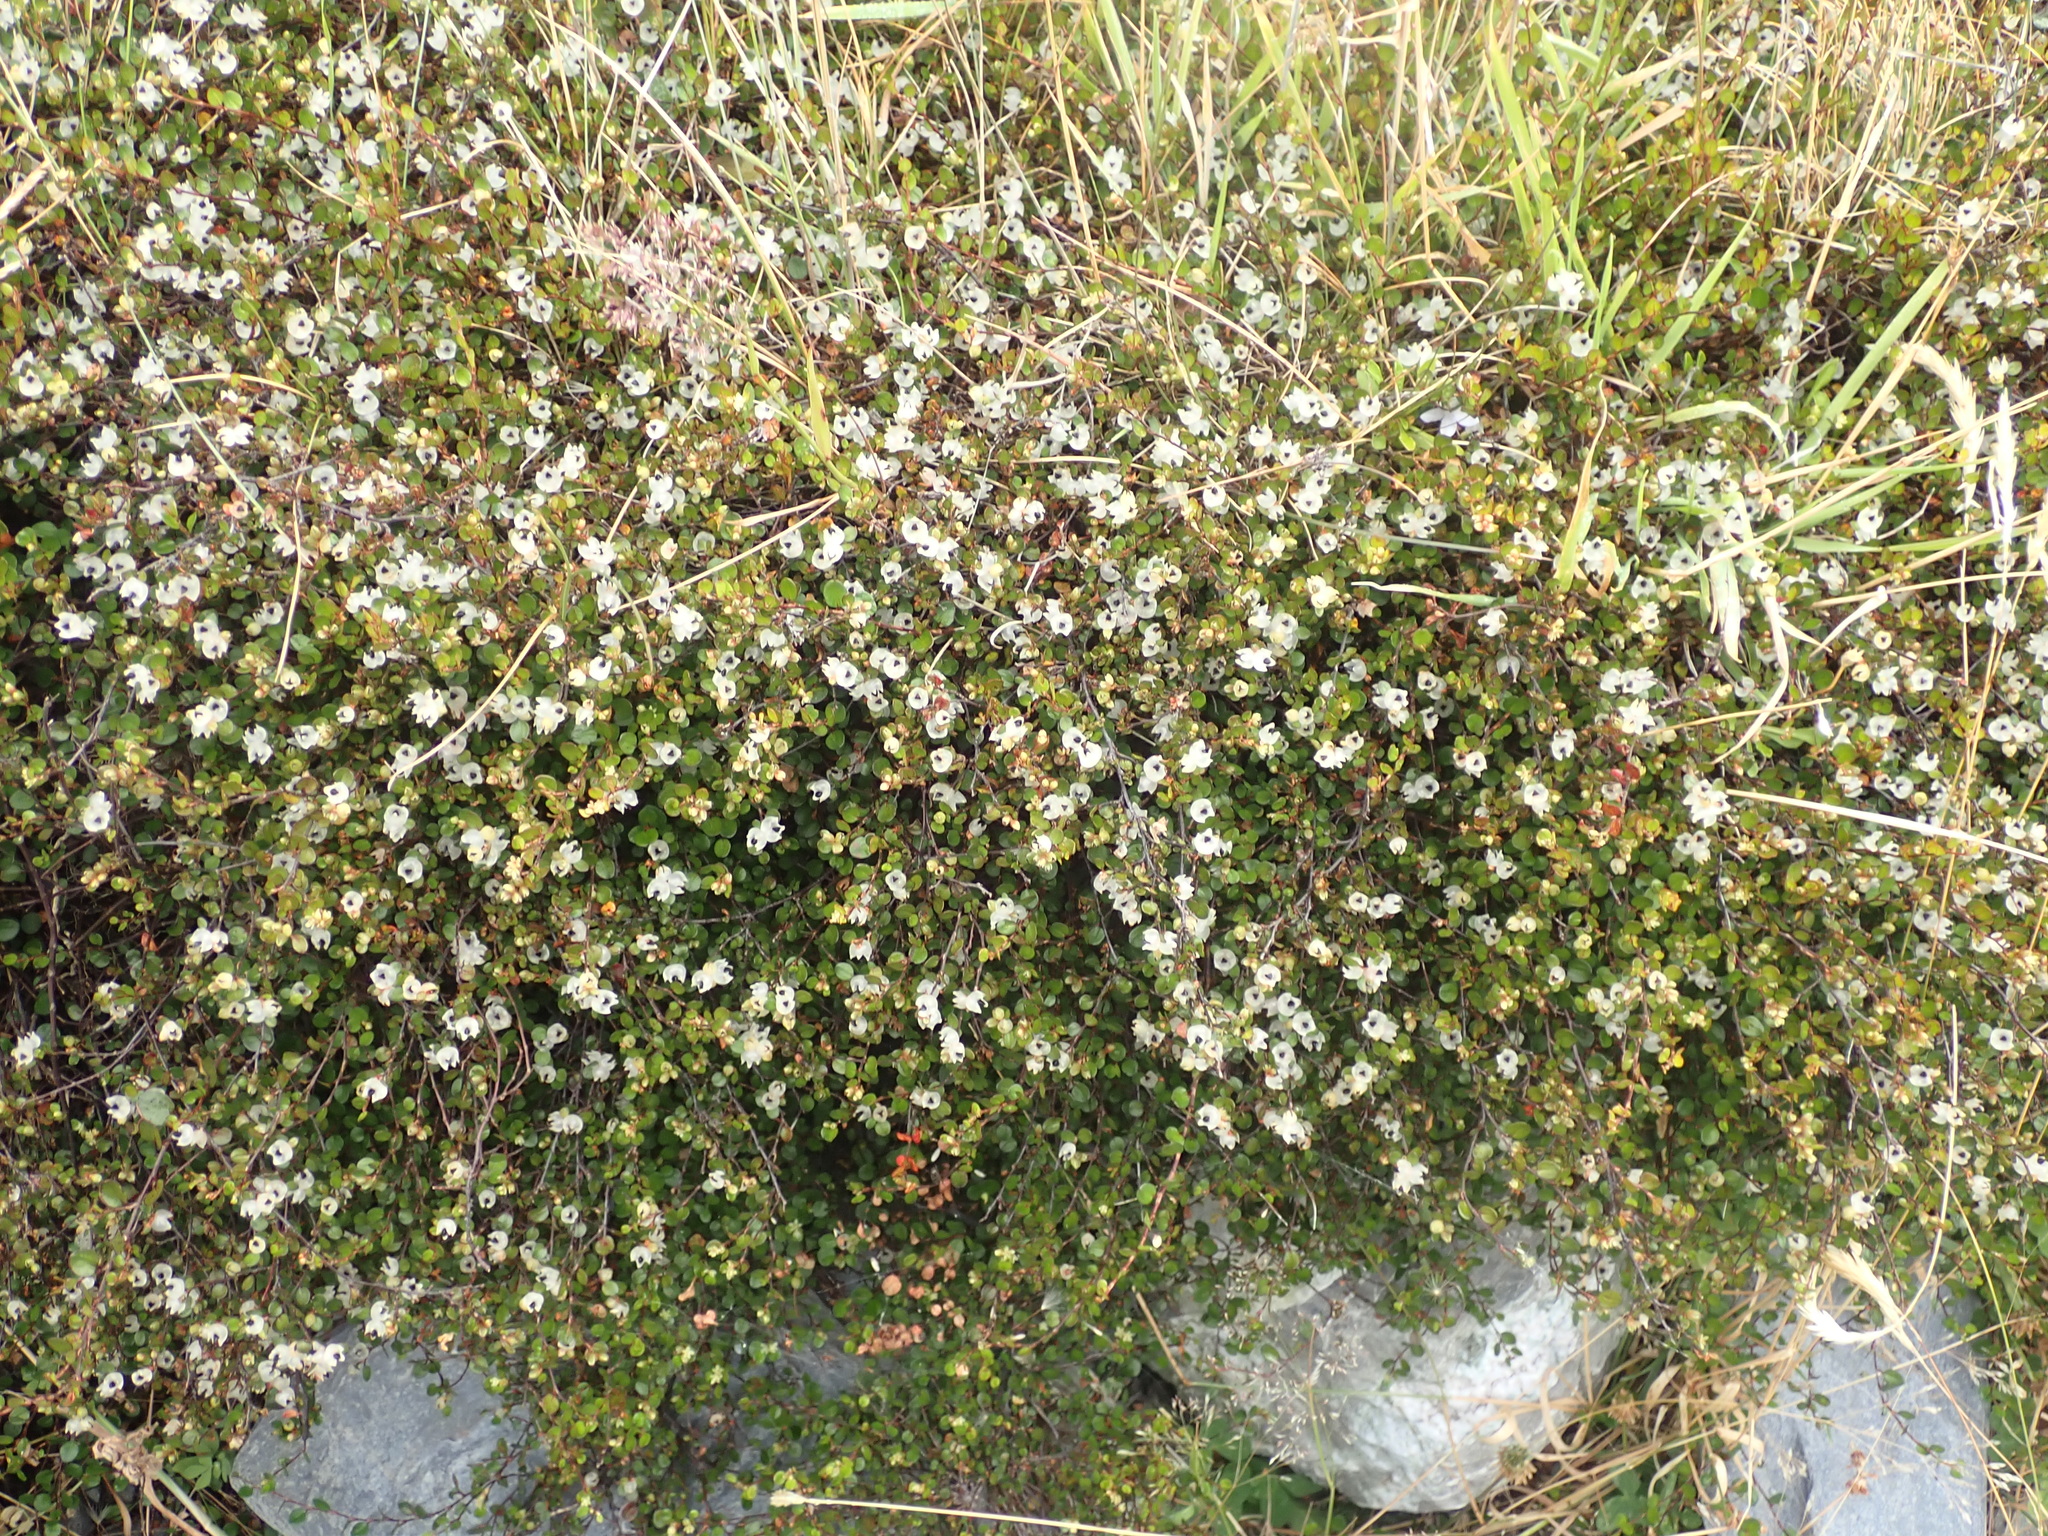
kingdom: Plantae
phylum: Tracheophyta
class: Magnoliopsida
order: Caryophyllales
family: Polygonaceae
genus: Muehlenbeckia
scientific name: Muehlenbeckia axillaris
